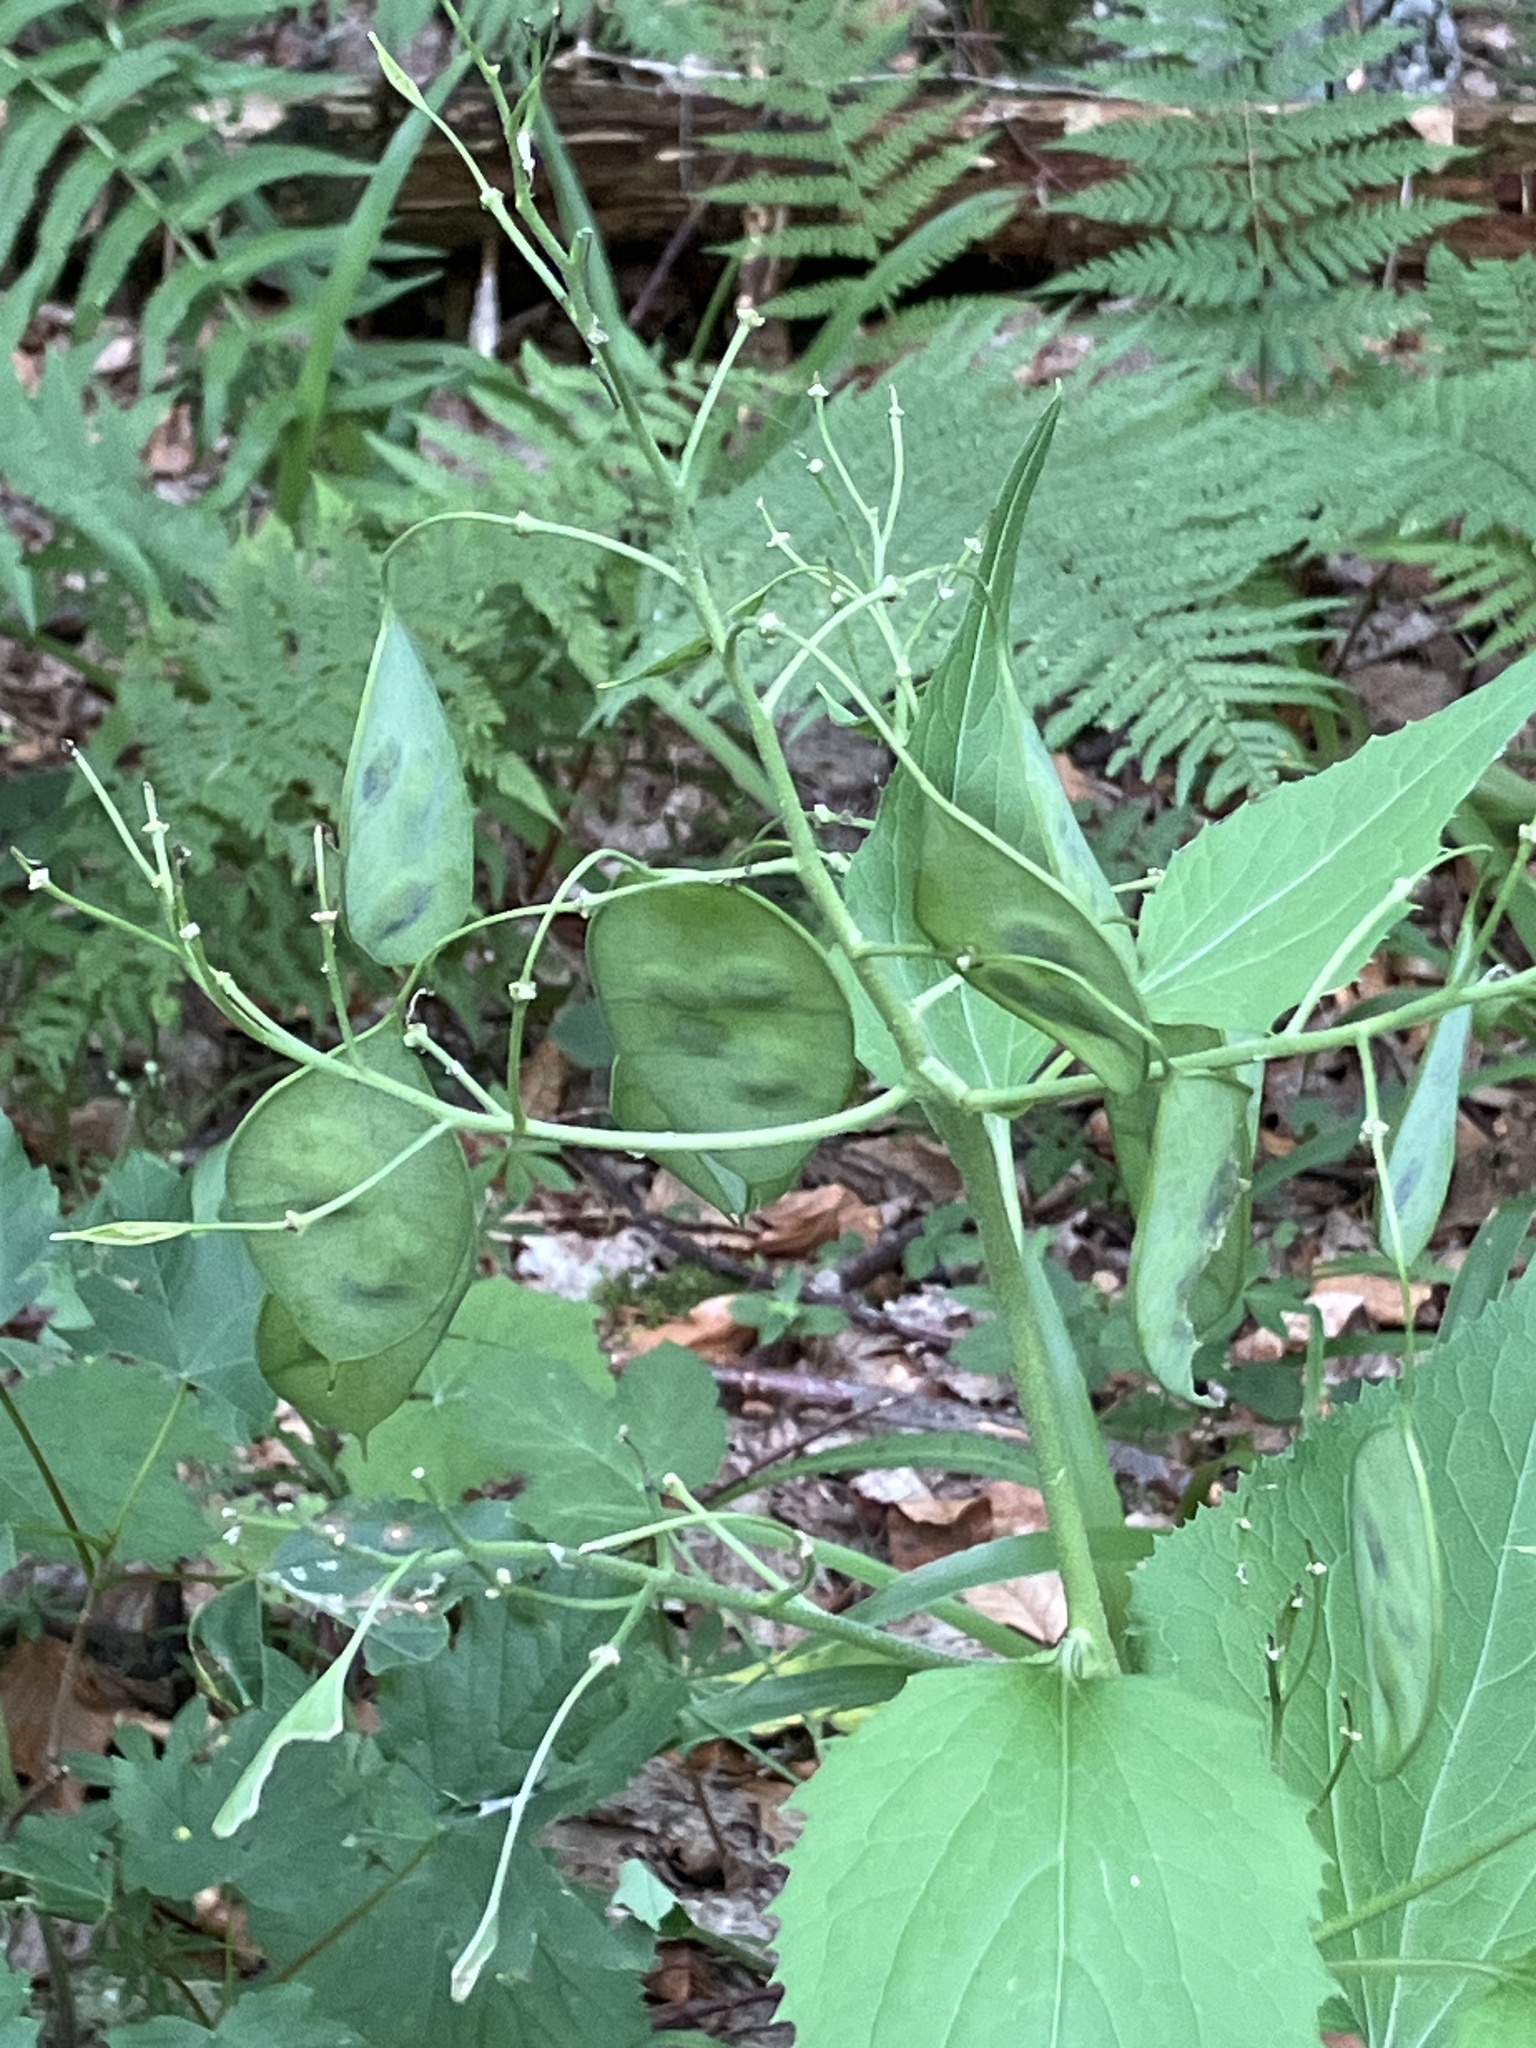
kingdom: Plantae
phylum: Tracheophyta
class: Magnoliopsida
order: Brassicales
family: Brassicaceae
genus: Lunaria
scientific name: Lunaria rediviva
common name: Perennial honesty
